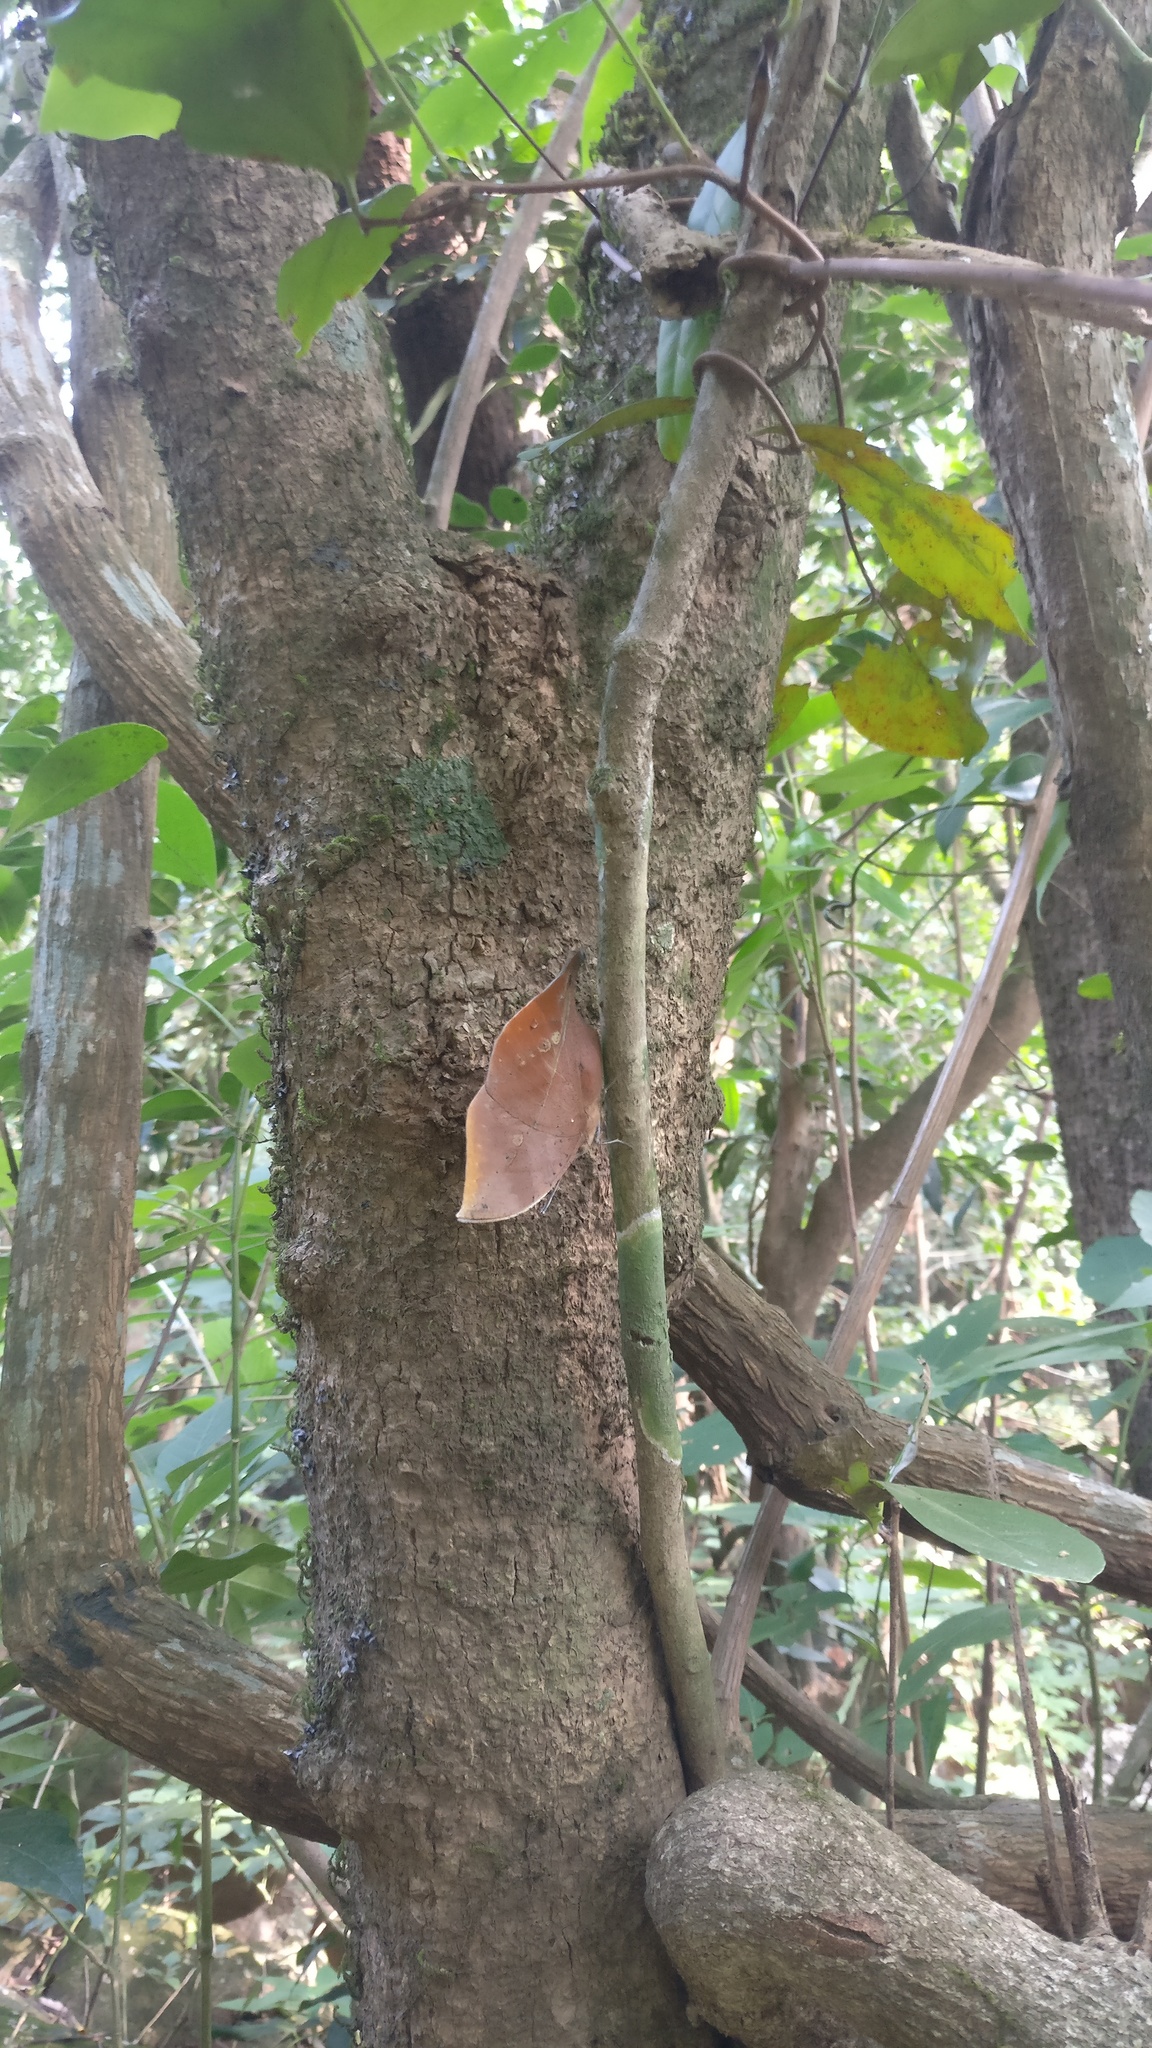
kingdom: Animalia
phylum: Arthropoda
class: Insecta
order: Lepidoptera
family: Nymphalidae
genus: Kallima
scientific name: Kallima horsfieldii
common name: Sahyadri blue oakleaf
